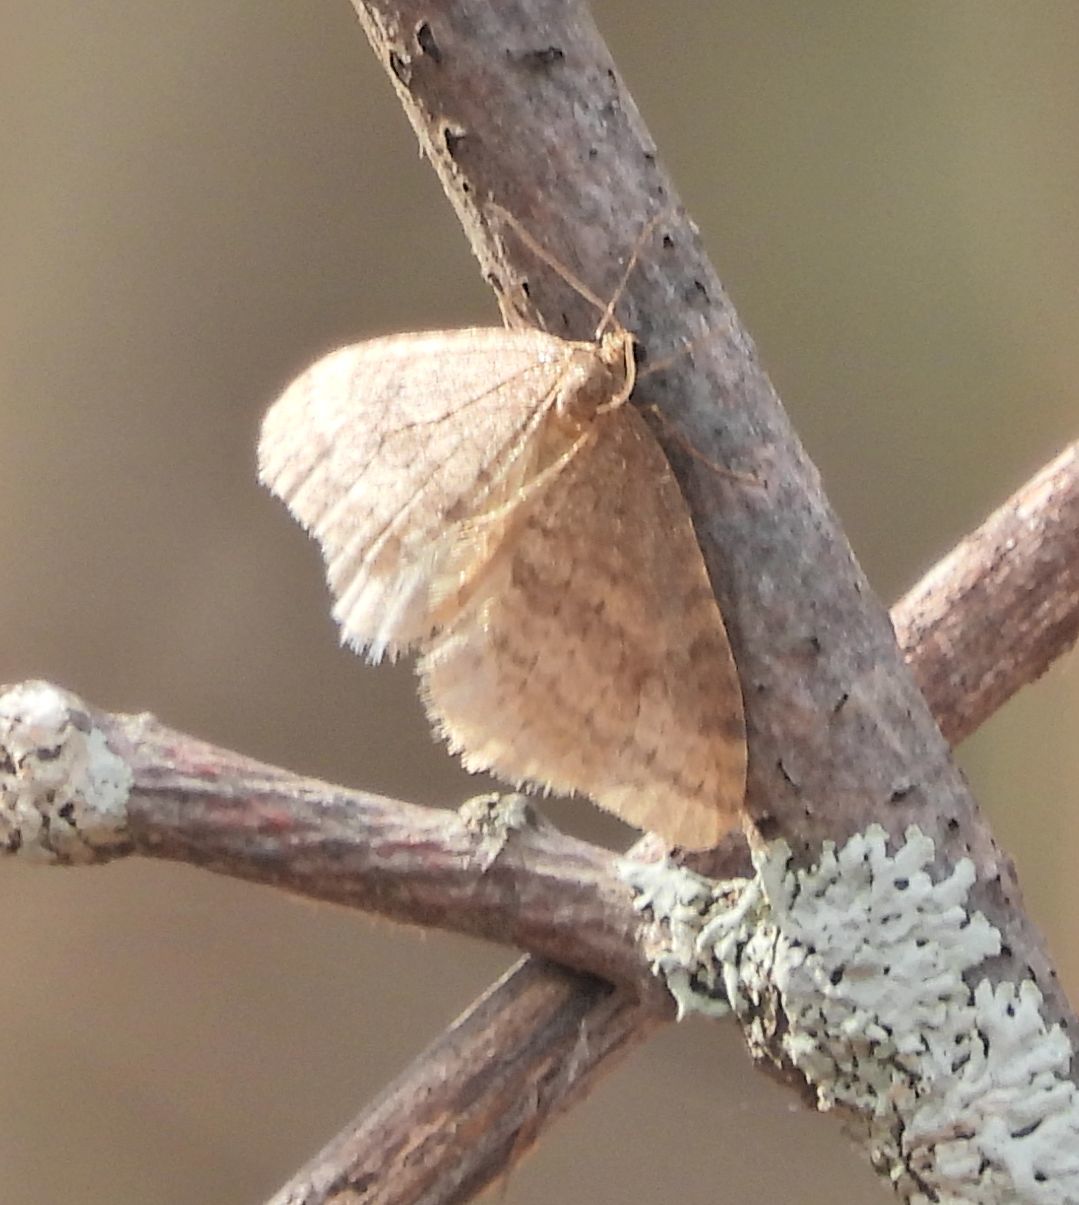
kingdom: Animalia
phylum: Arthropoda
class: Insecta
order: Lepidoptera
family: Geometridae
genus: Operophtera
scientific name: Operophtera bruceata
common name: Bruce spanworm
